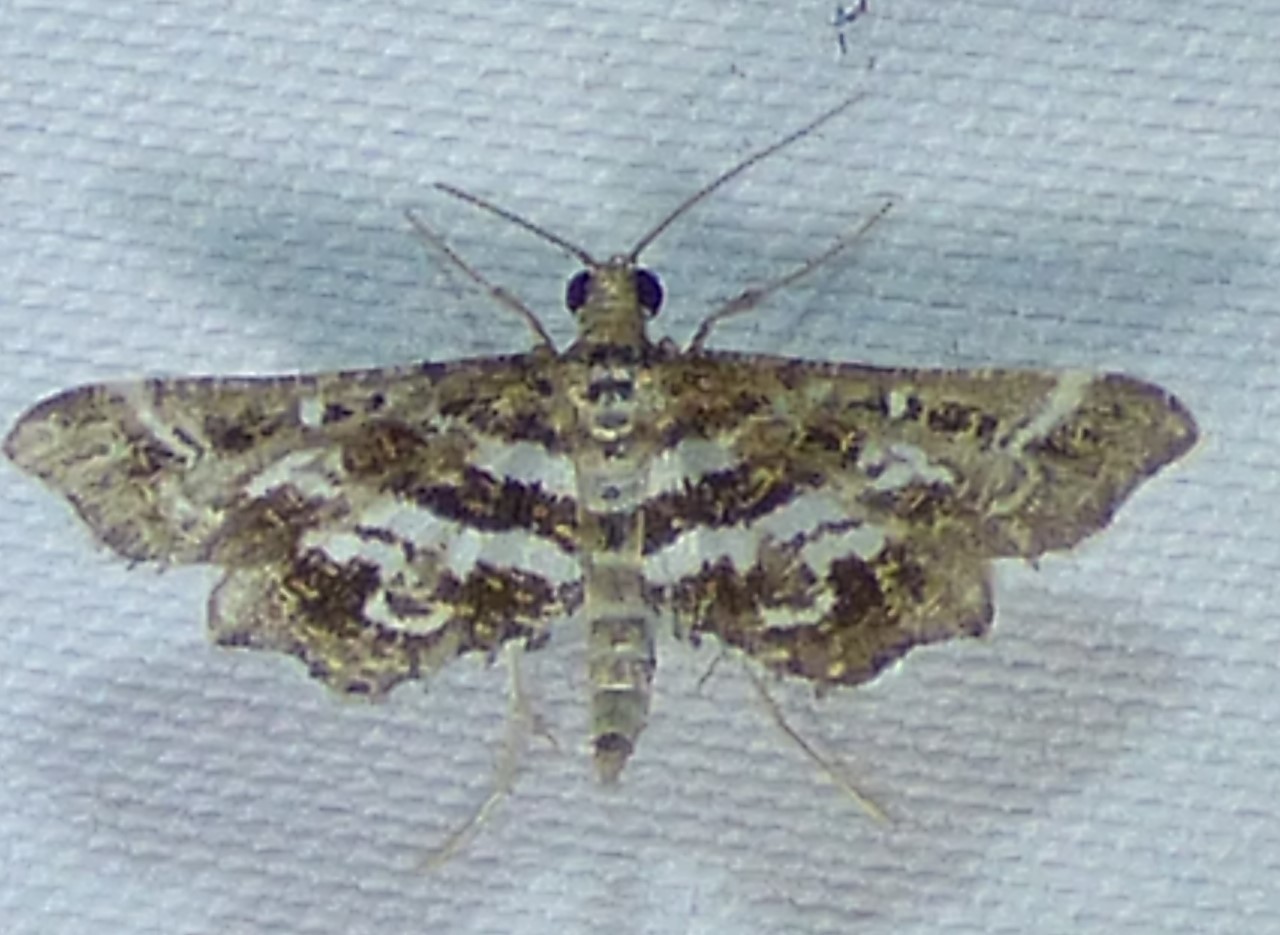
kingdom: Animalia
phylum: Arthropoda
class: Insecta
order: Lepidoptera
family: Crambidae
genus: Diasemiopsis
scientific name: Diasemiopsis ramburialis
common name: Vagrant china-mark
